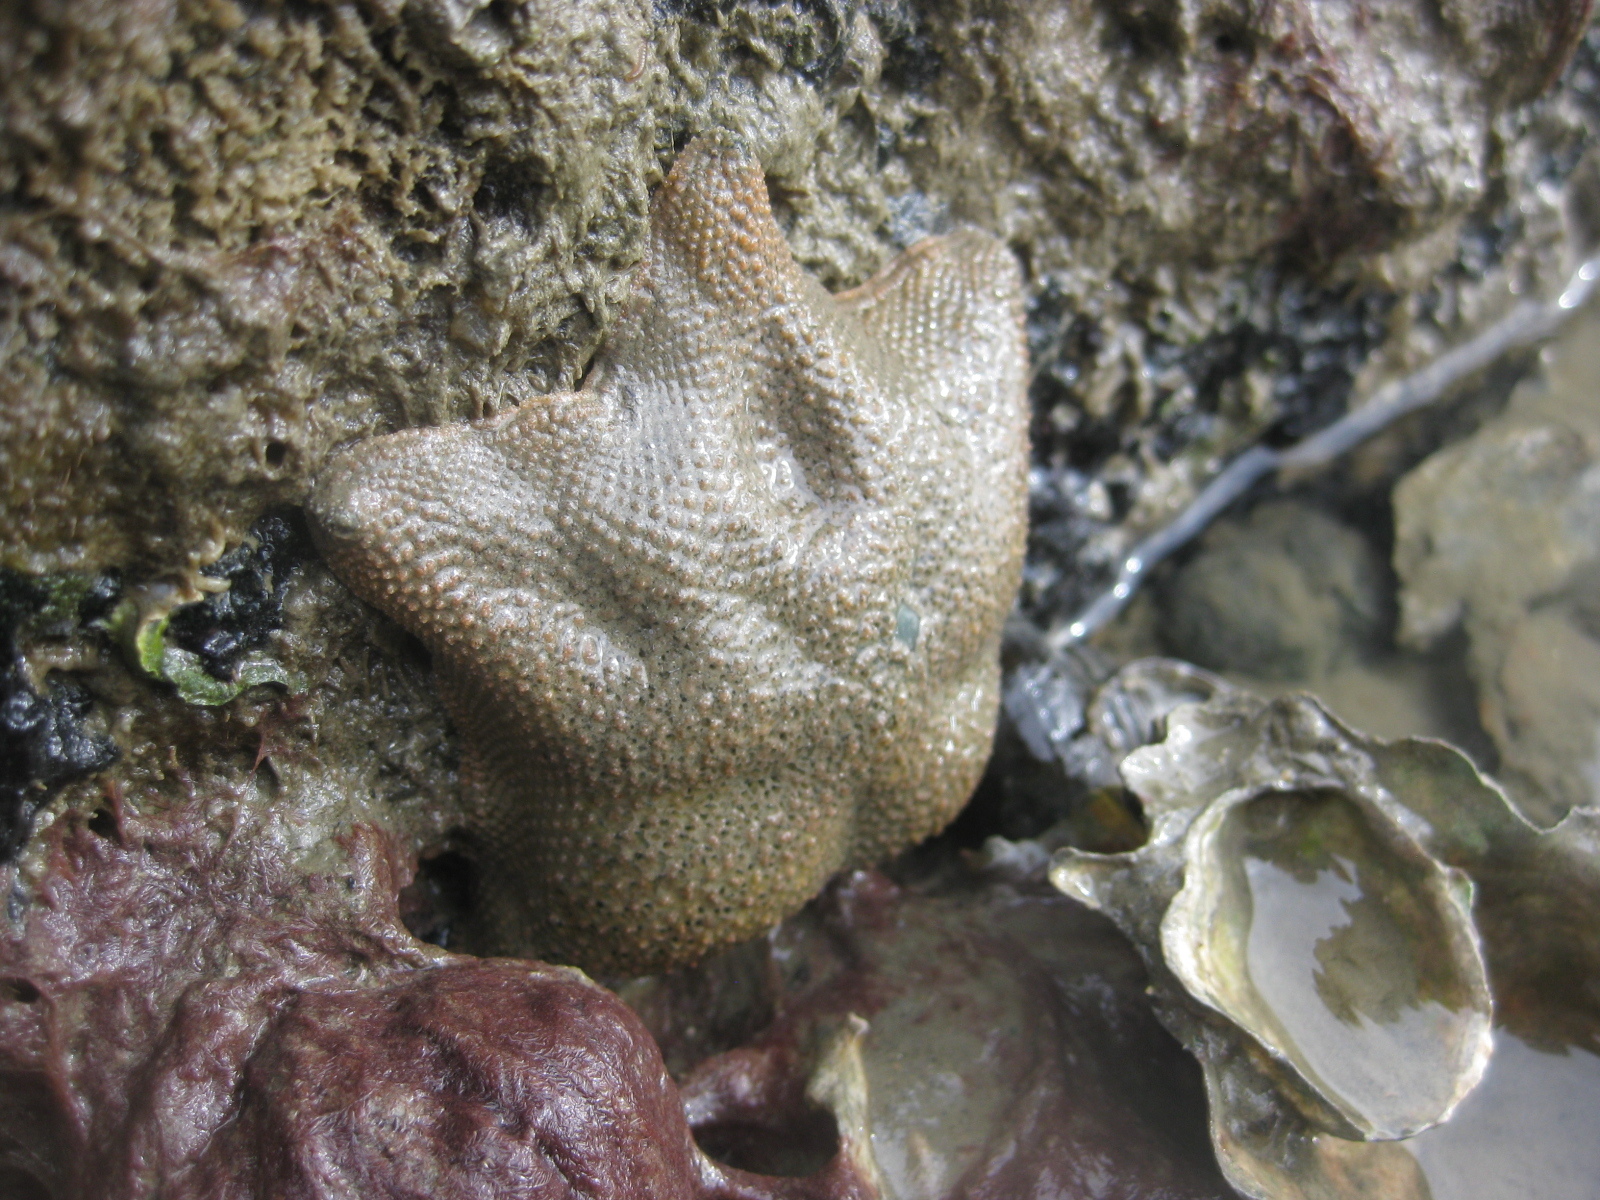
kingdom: Animalia
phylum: Echinodermata
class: Asteroidea
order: Valvatida
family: Asterinidae
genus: Patiriella
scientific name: Patiriella regularis
